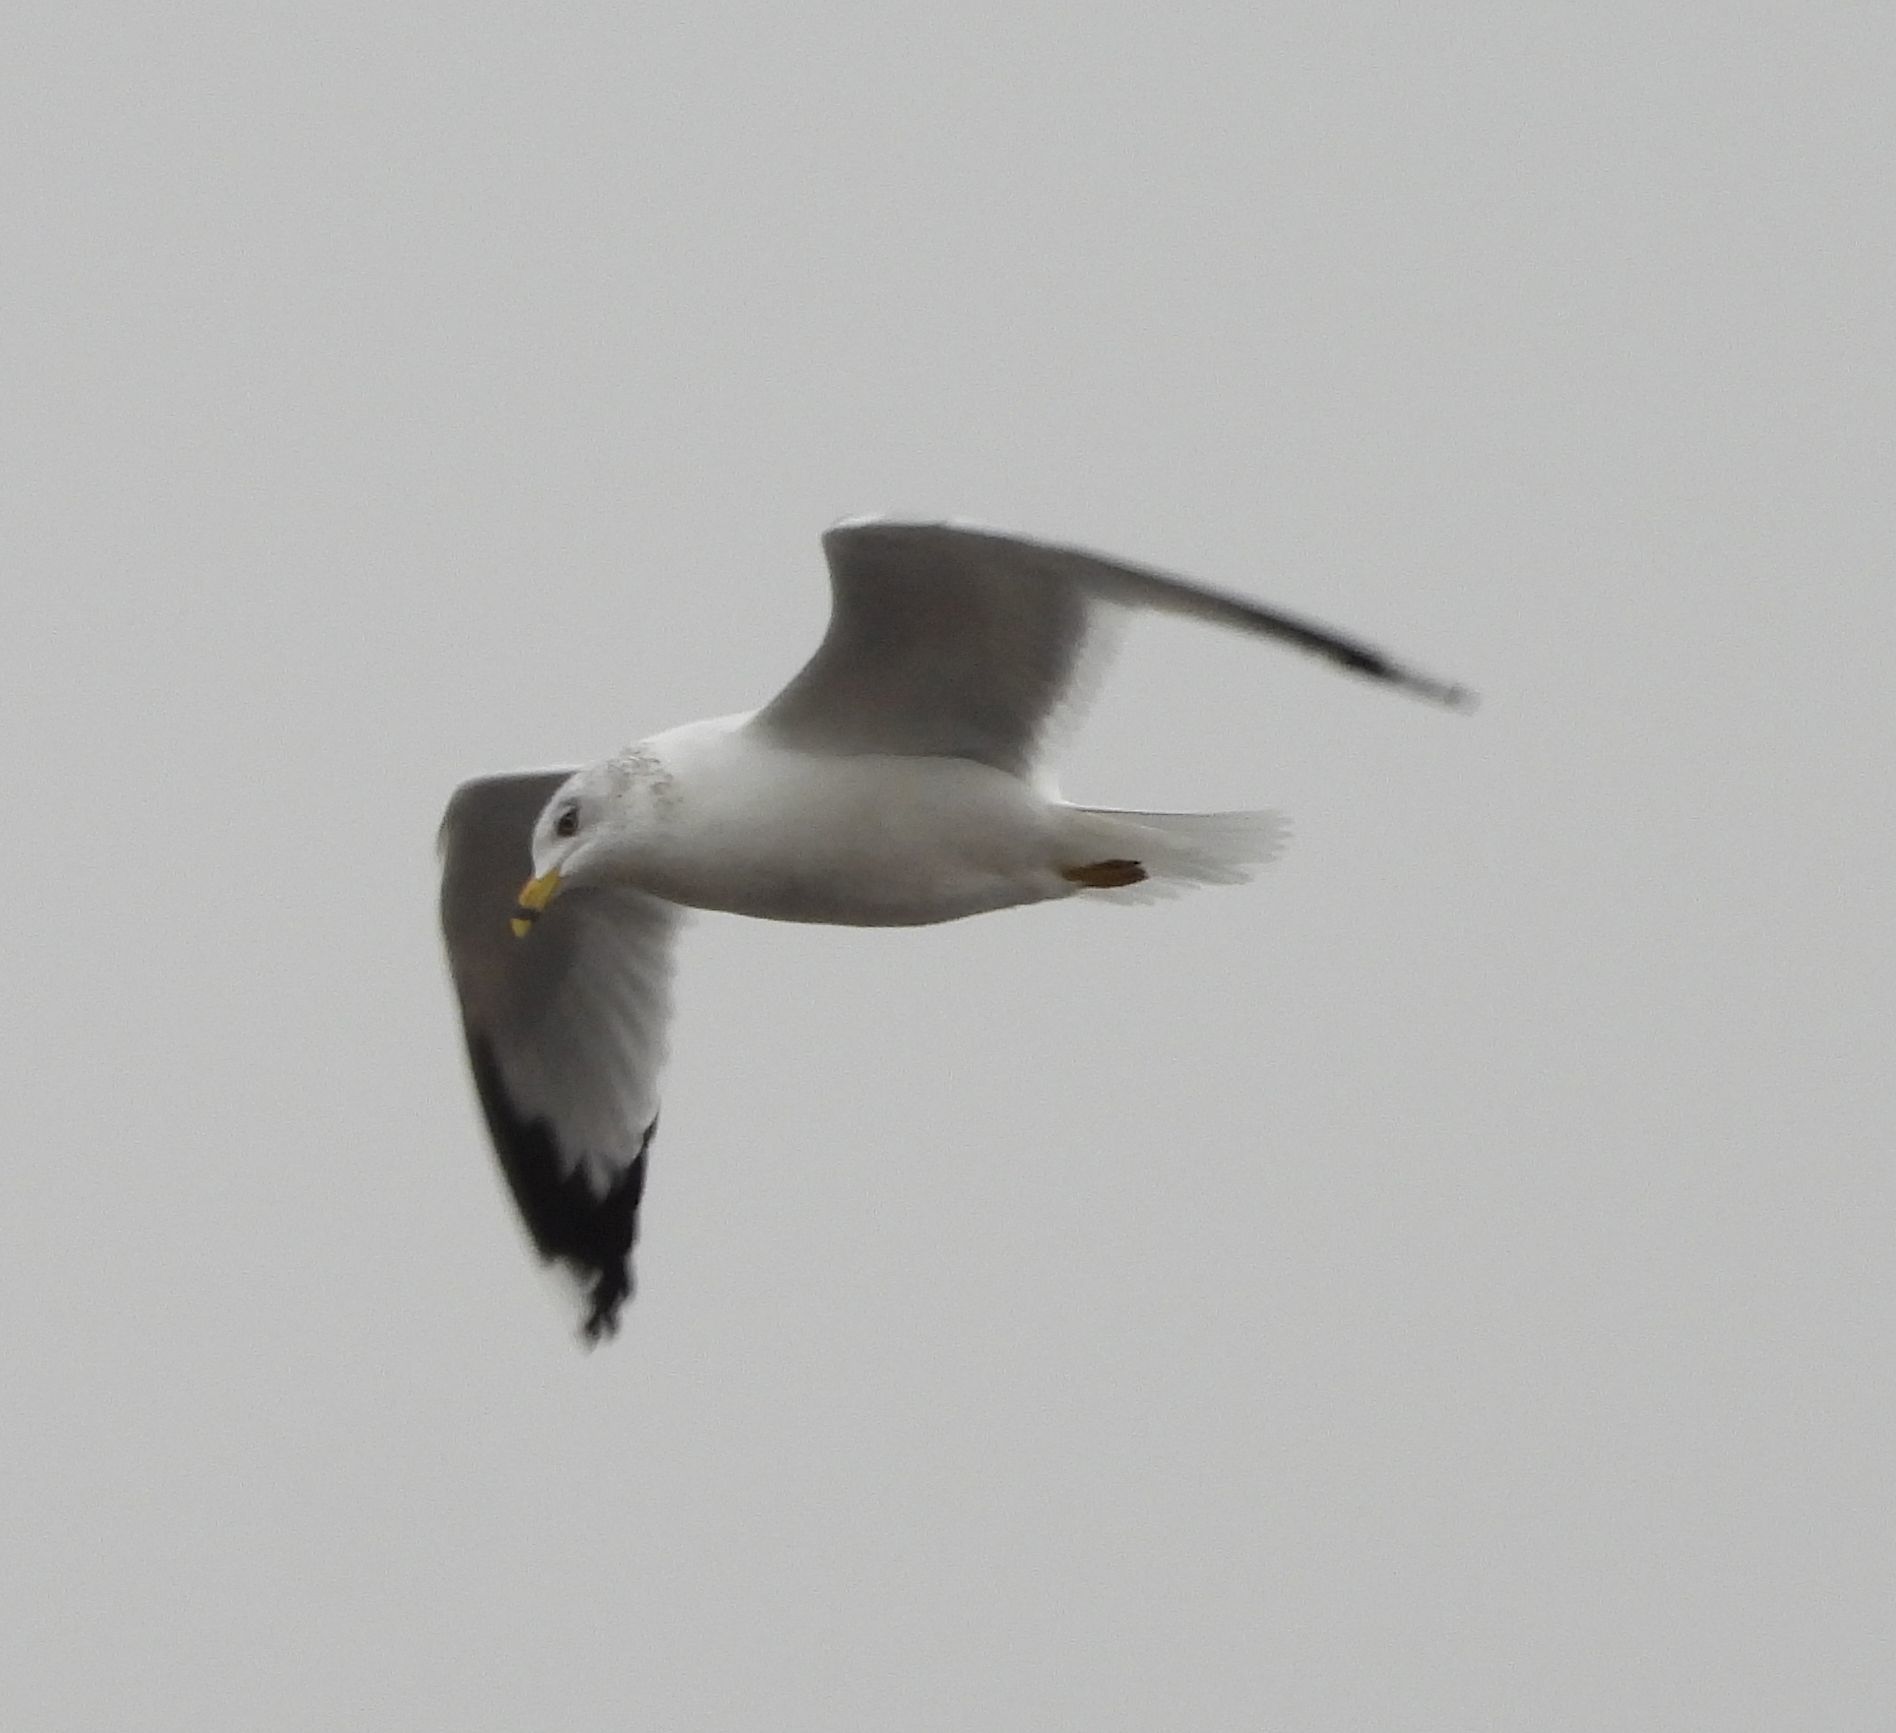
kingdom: Animalia
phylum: Chordata
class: Aves
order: Charadriiformes
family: Laridae
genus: Larus
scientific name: Larus delawarensis
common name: Ring-billed gull
